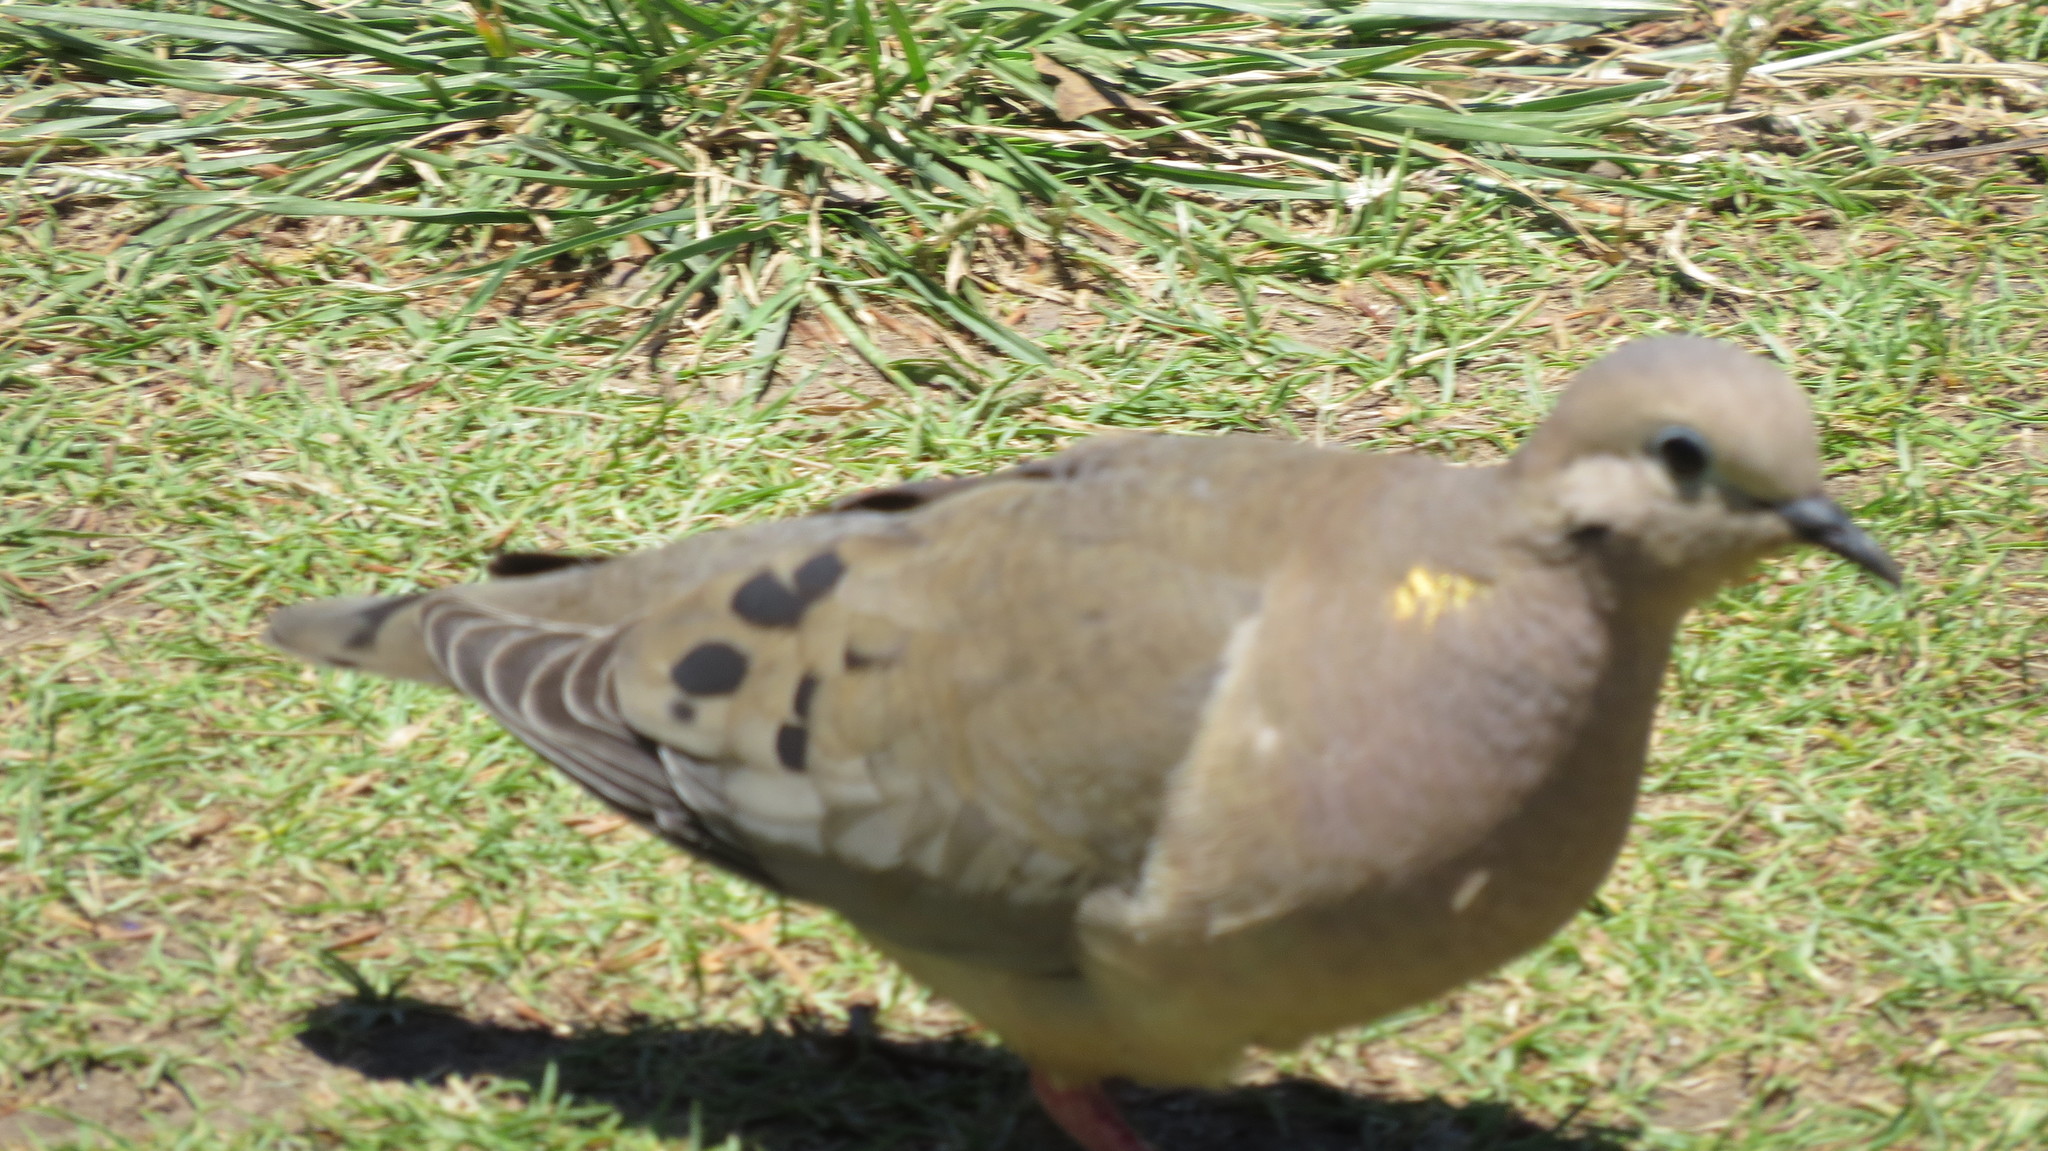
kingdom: Animalia
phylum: Chordata
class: Aves
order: Columbiformes
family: Columbidae
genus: Zenaida
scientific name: Zenaida auriculata
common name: Eared dove
